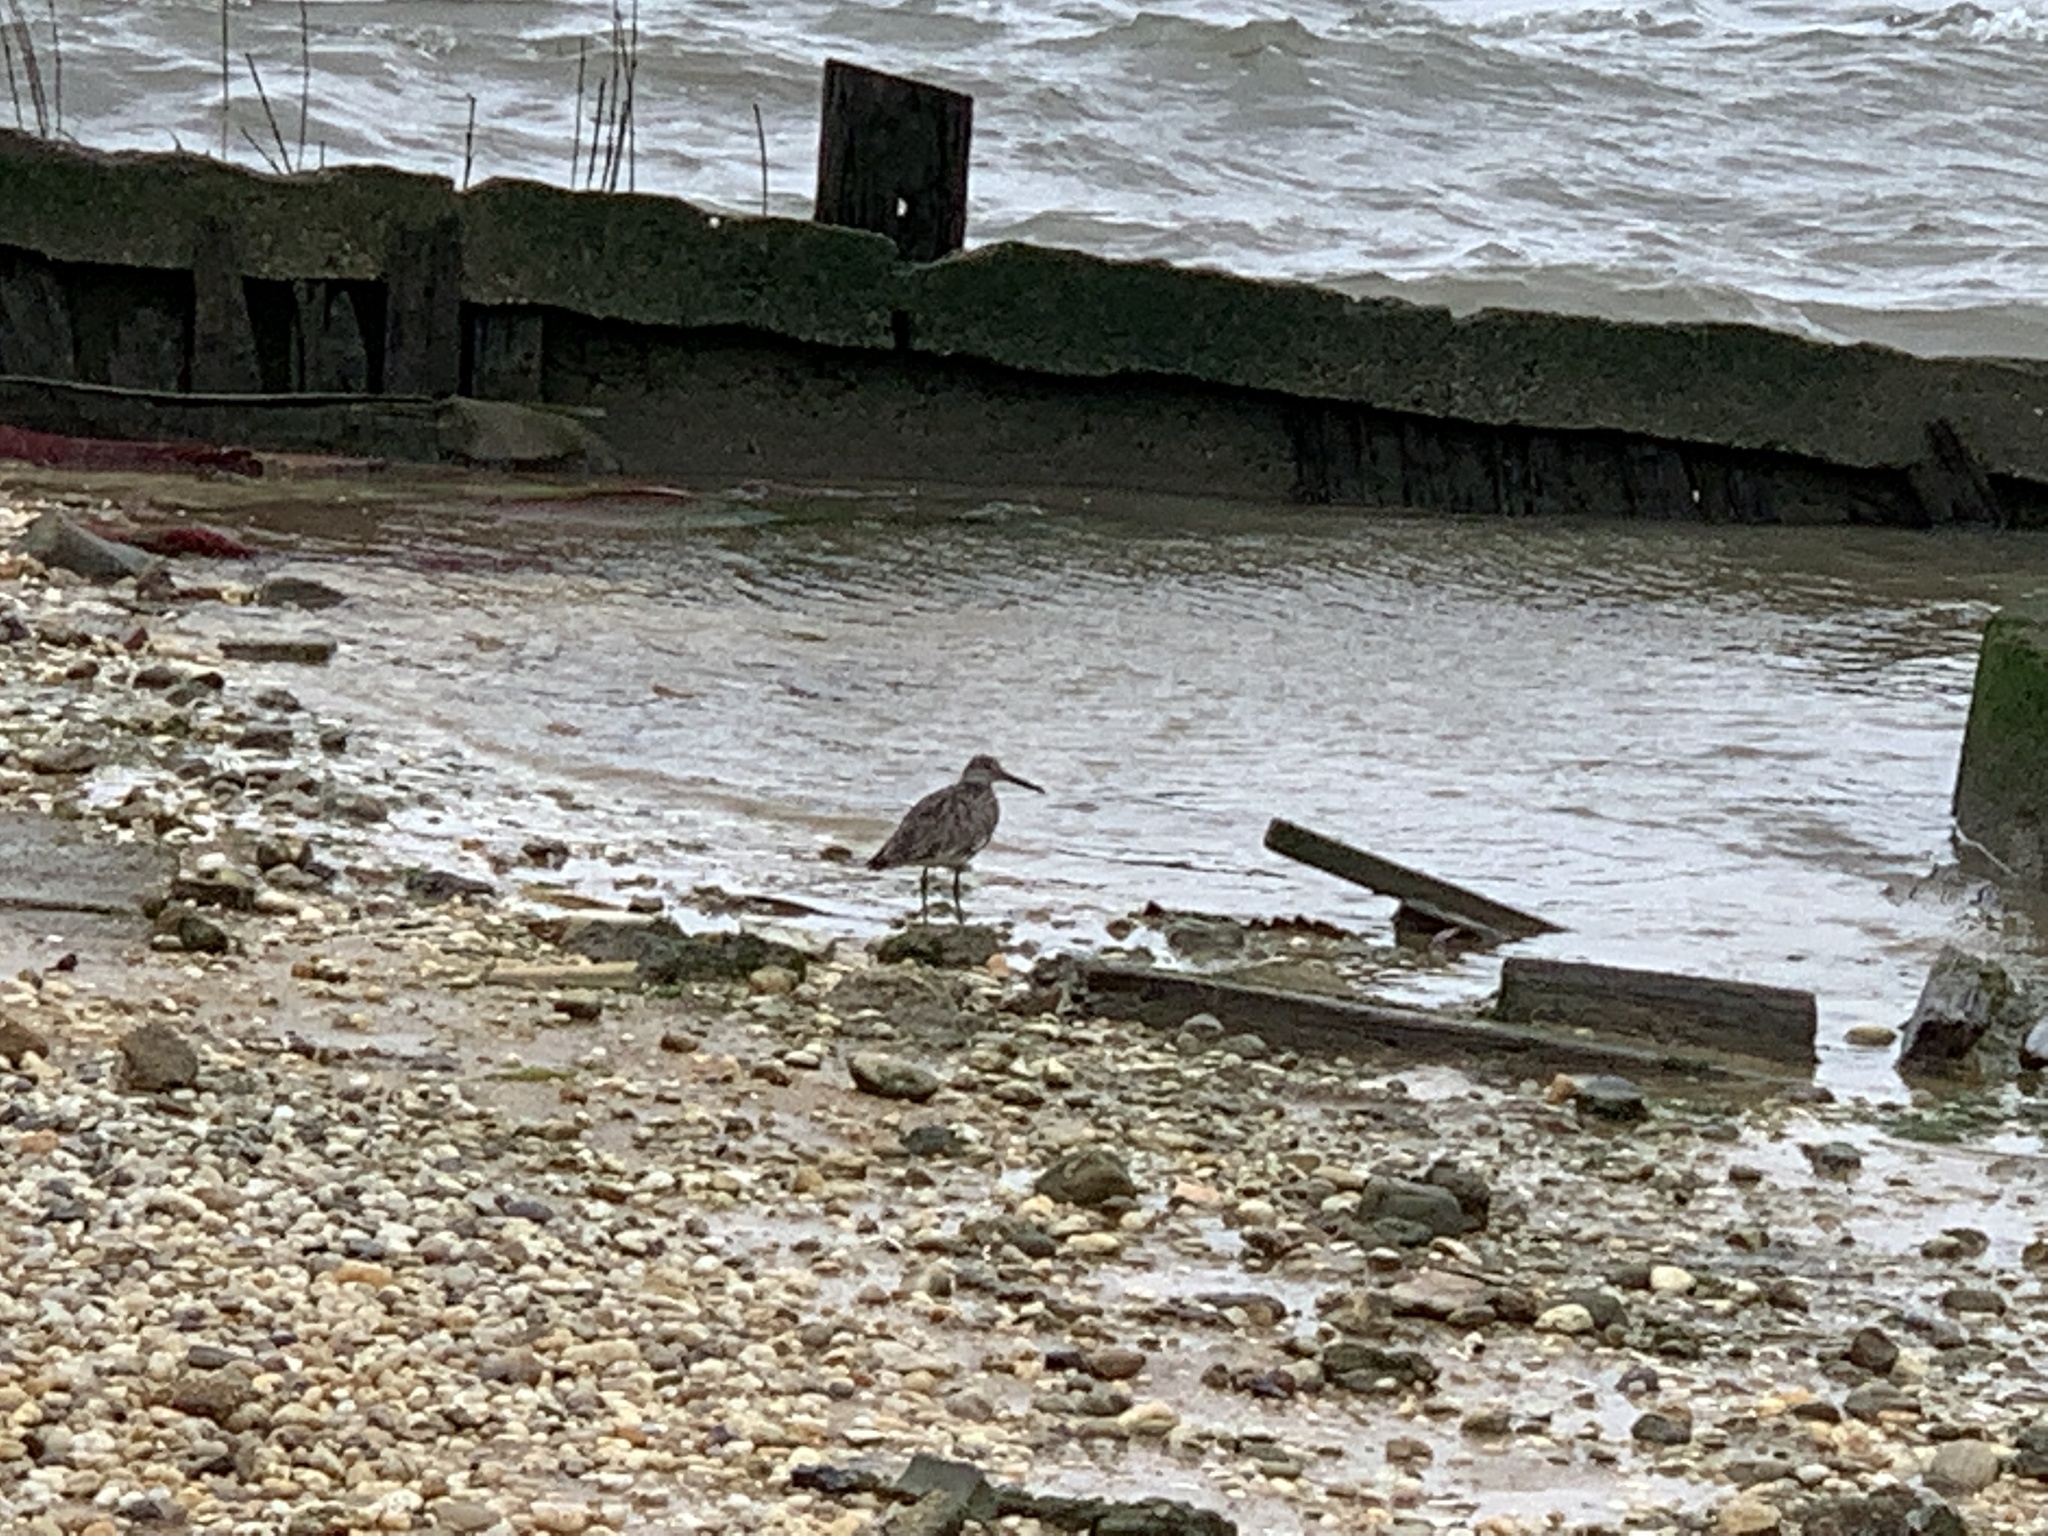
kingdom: Animalia
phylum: Chordata
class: Aves
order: Charadriiformes
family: Scolopacidae
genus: Tringa
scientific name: Tringa semipalmata
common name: Willet
